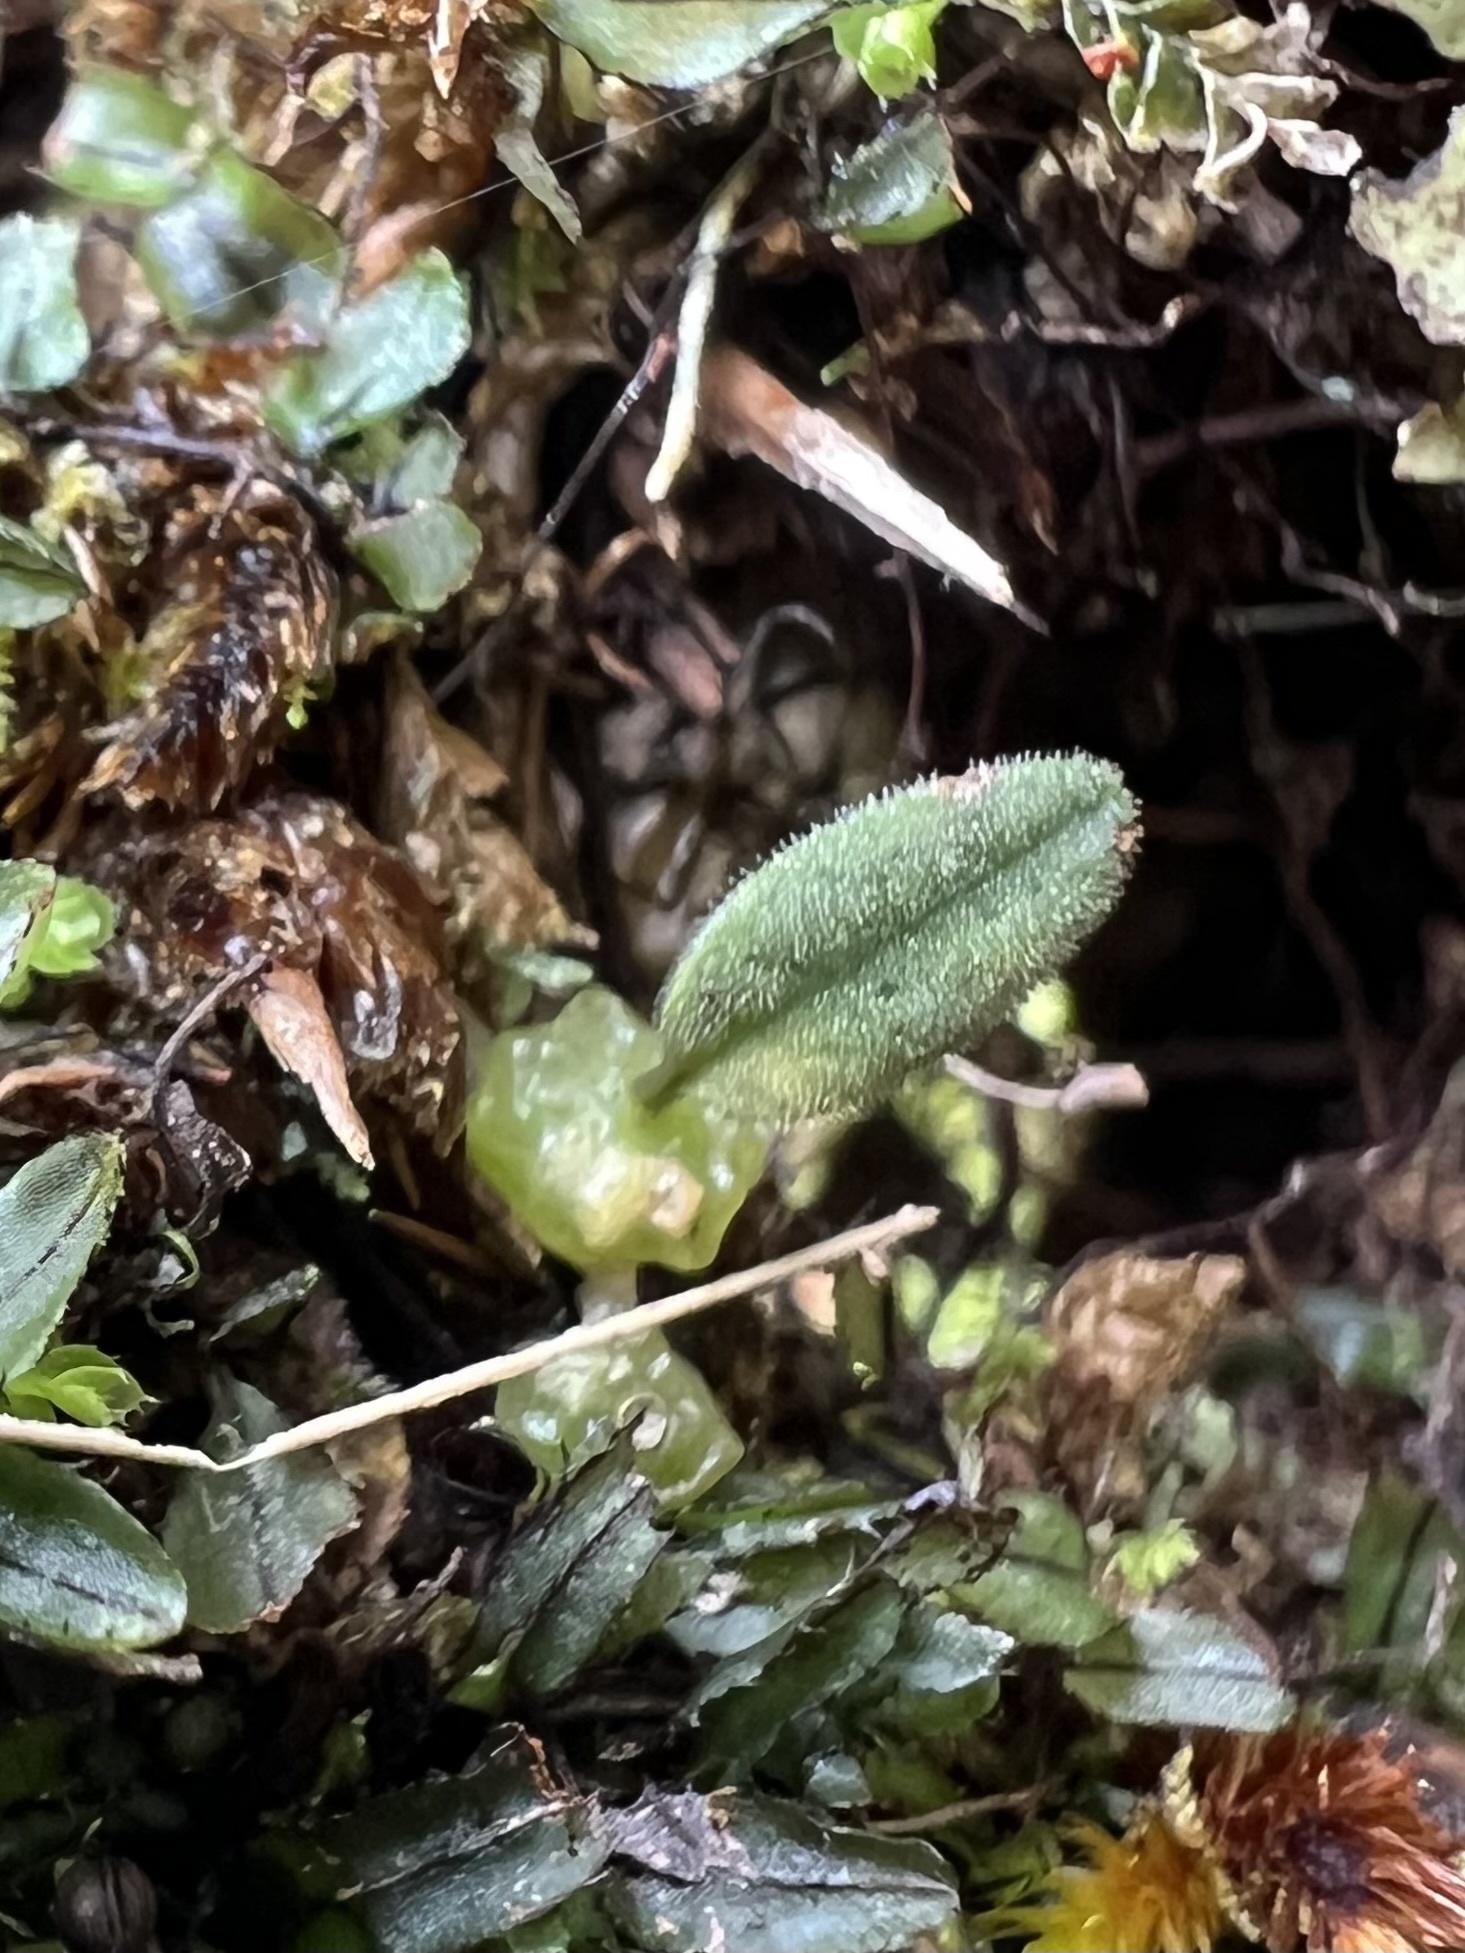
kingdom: Plantae
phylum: Tracheophyta
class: Liliopsida
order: Asparagales
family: Orchidaceae
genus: Bulbophyllum
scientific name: Bulbophyllum pygmaeum
